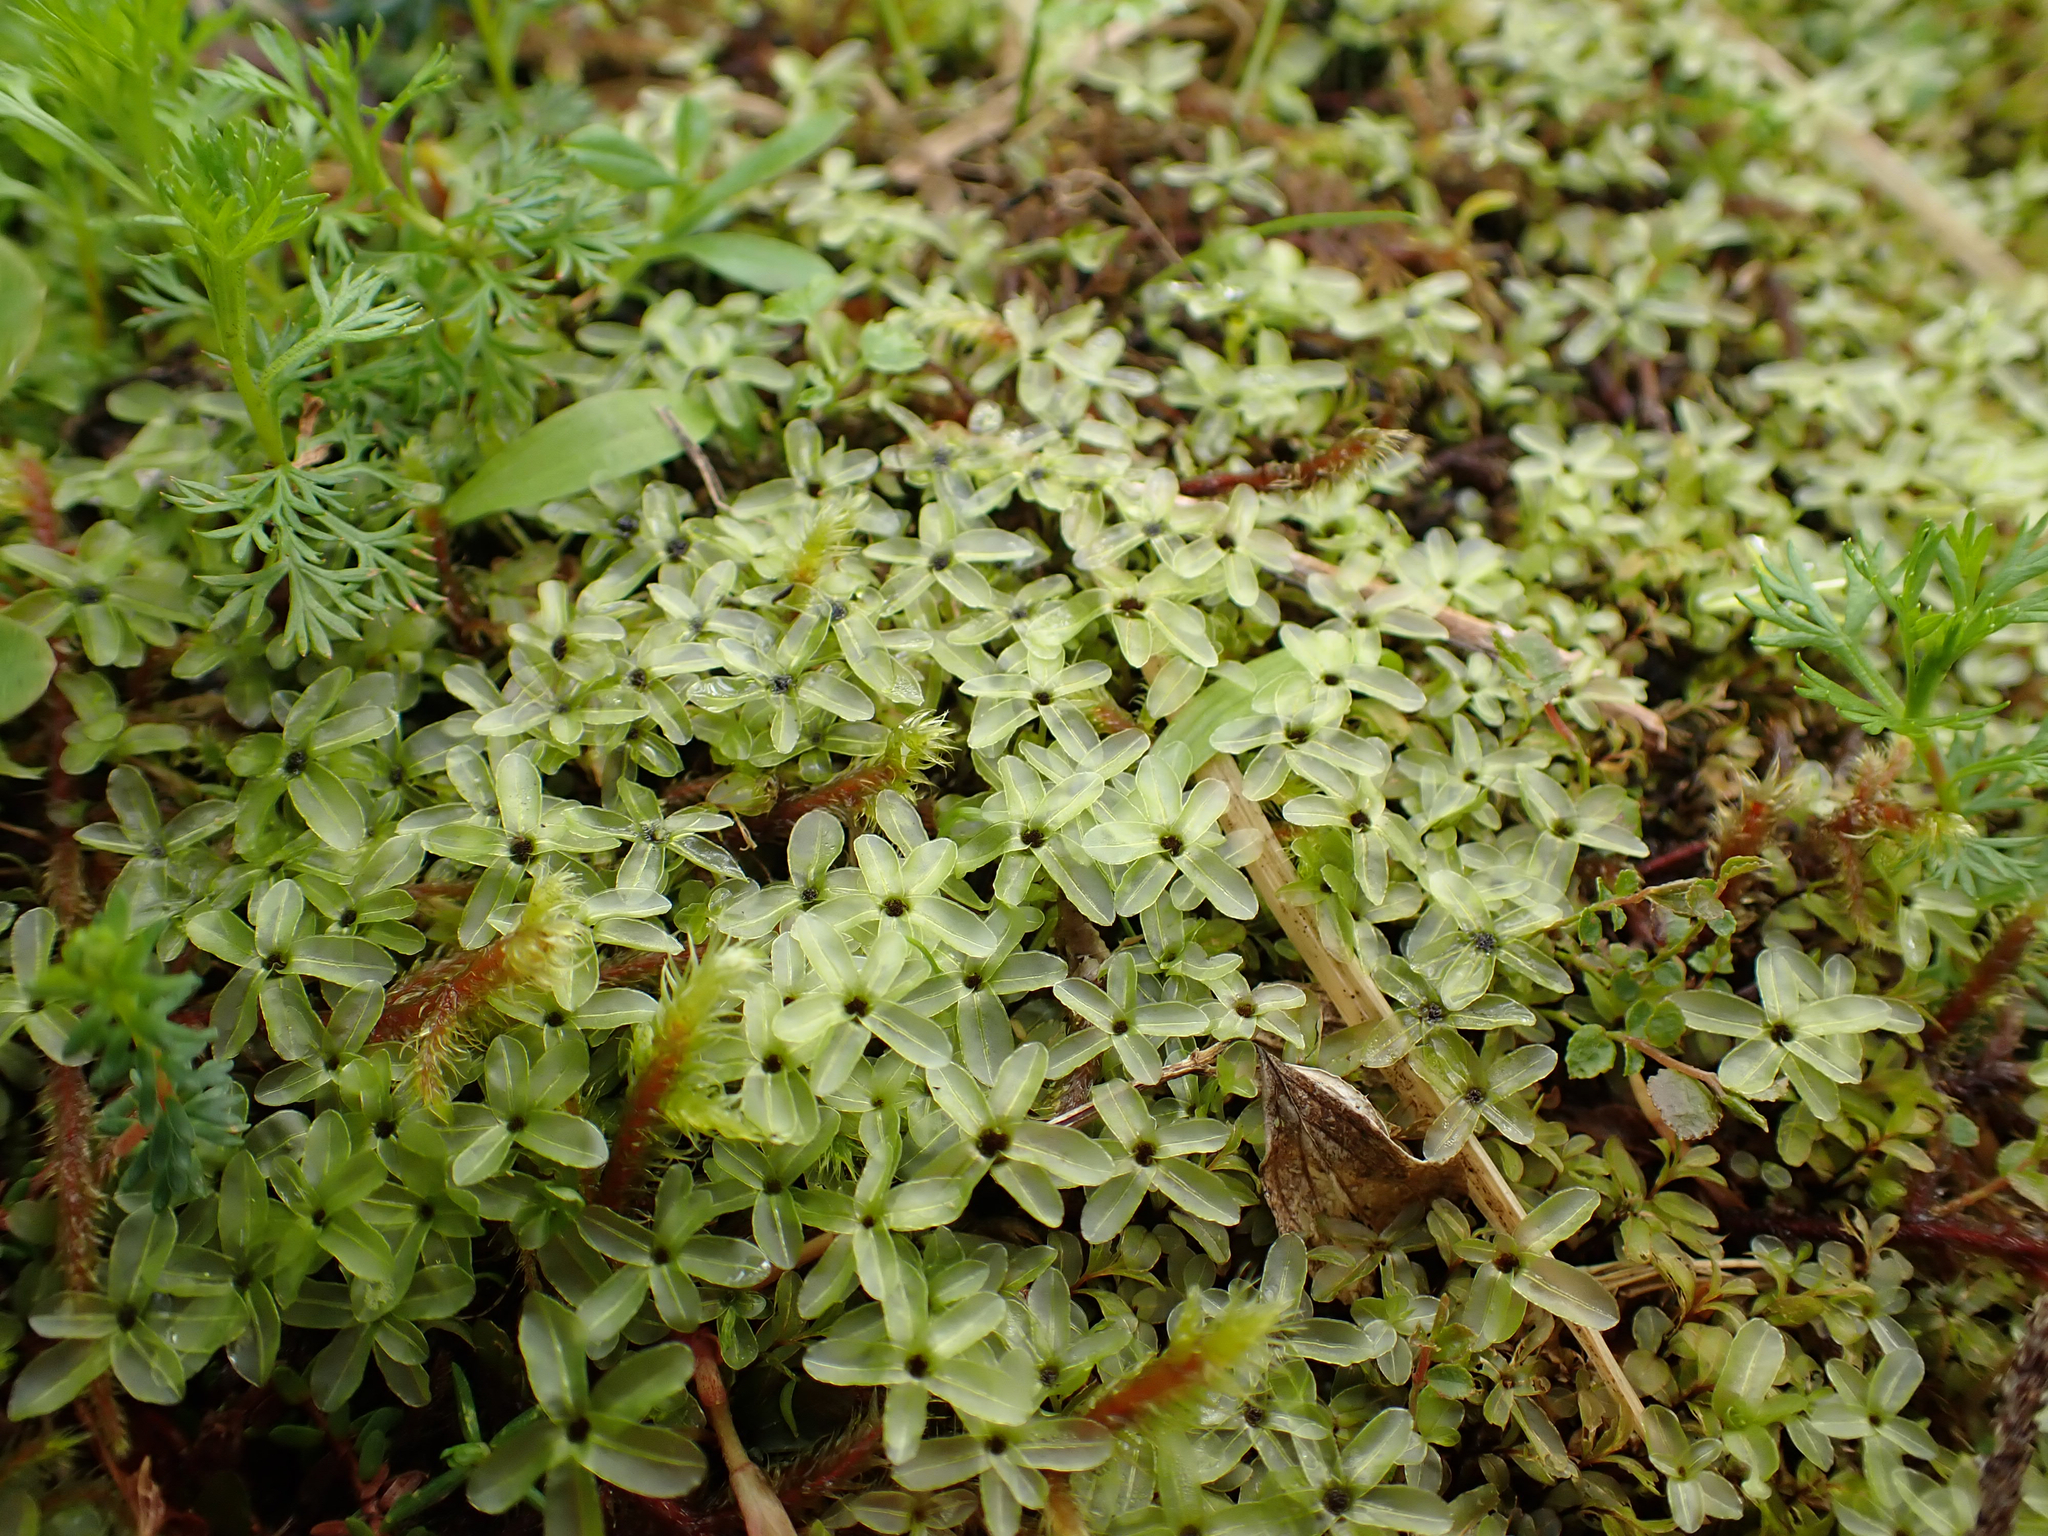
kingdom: Plantae
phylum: Bryophyta
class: Bryopsida
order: Bryales
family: Mniaceae
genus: Rhizomnium
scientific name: Rhizomnium glabrescens
